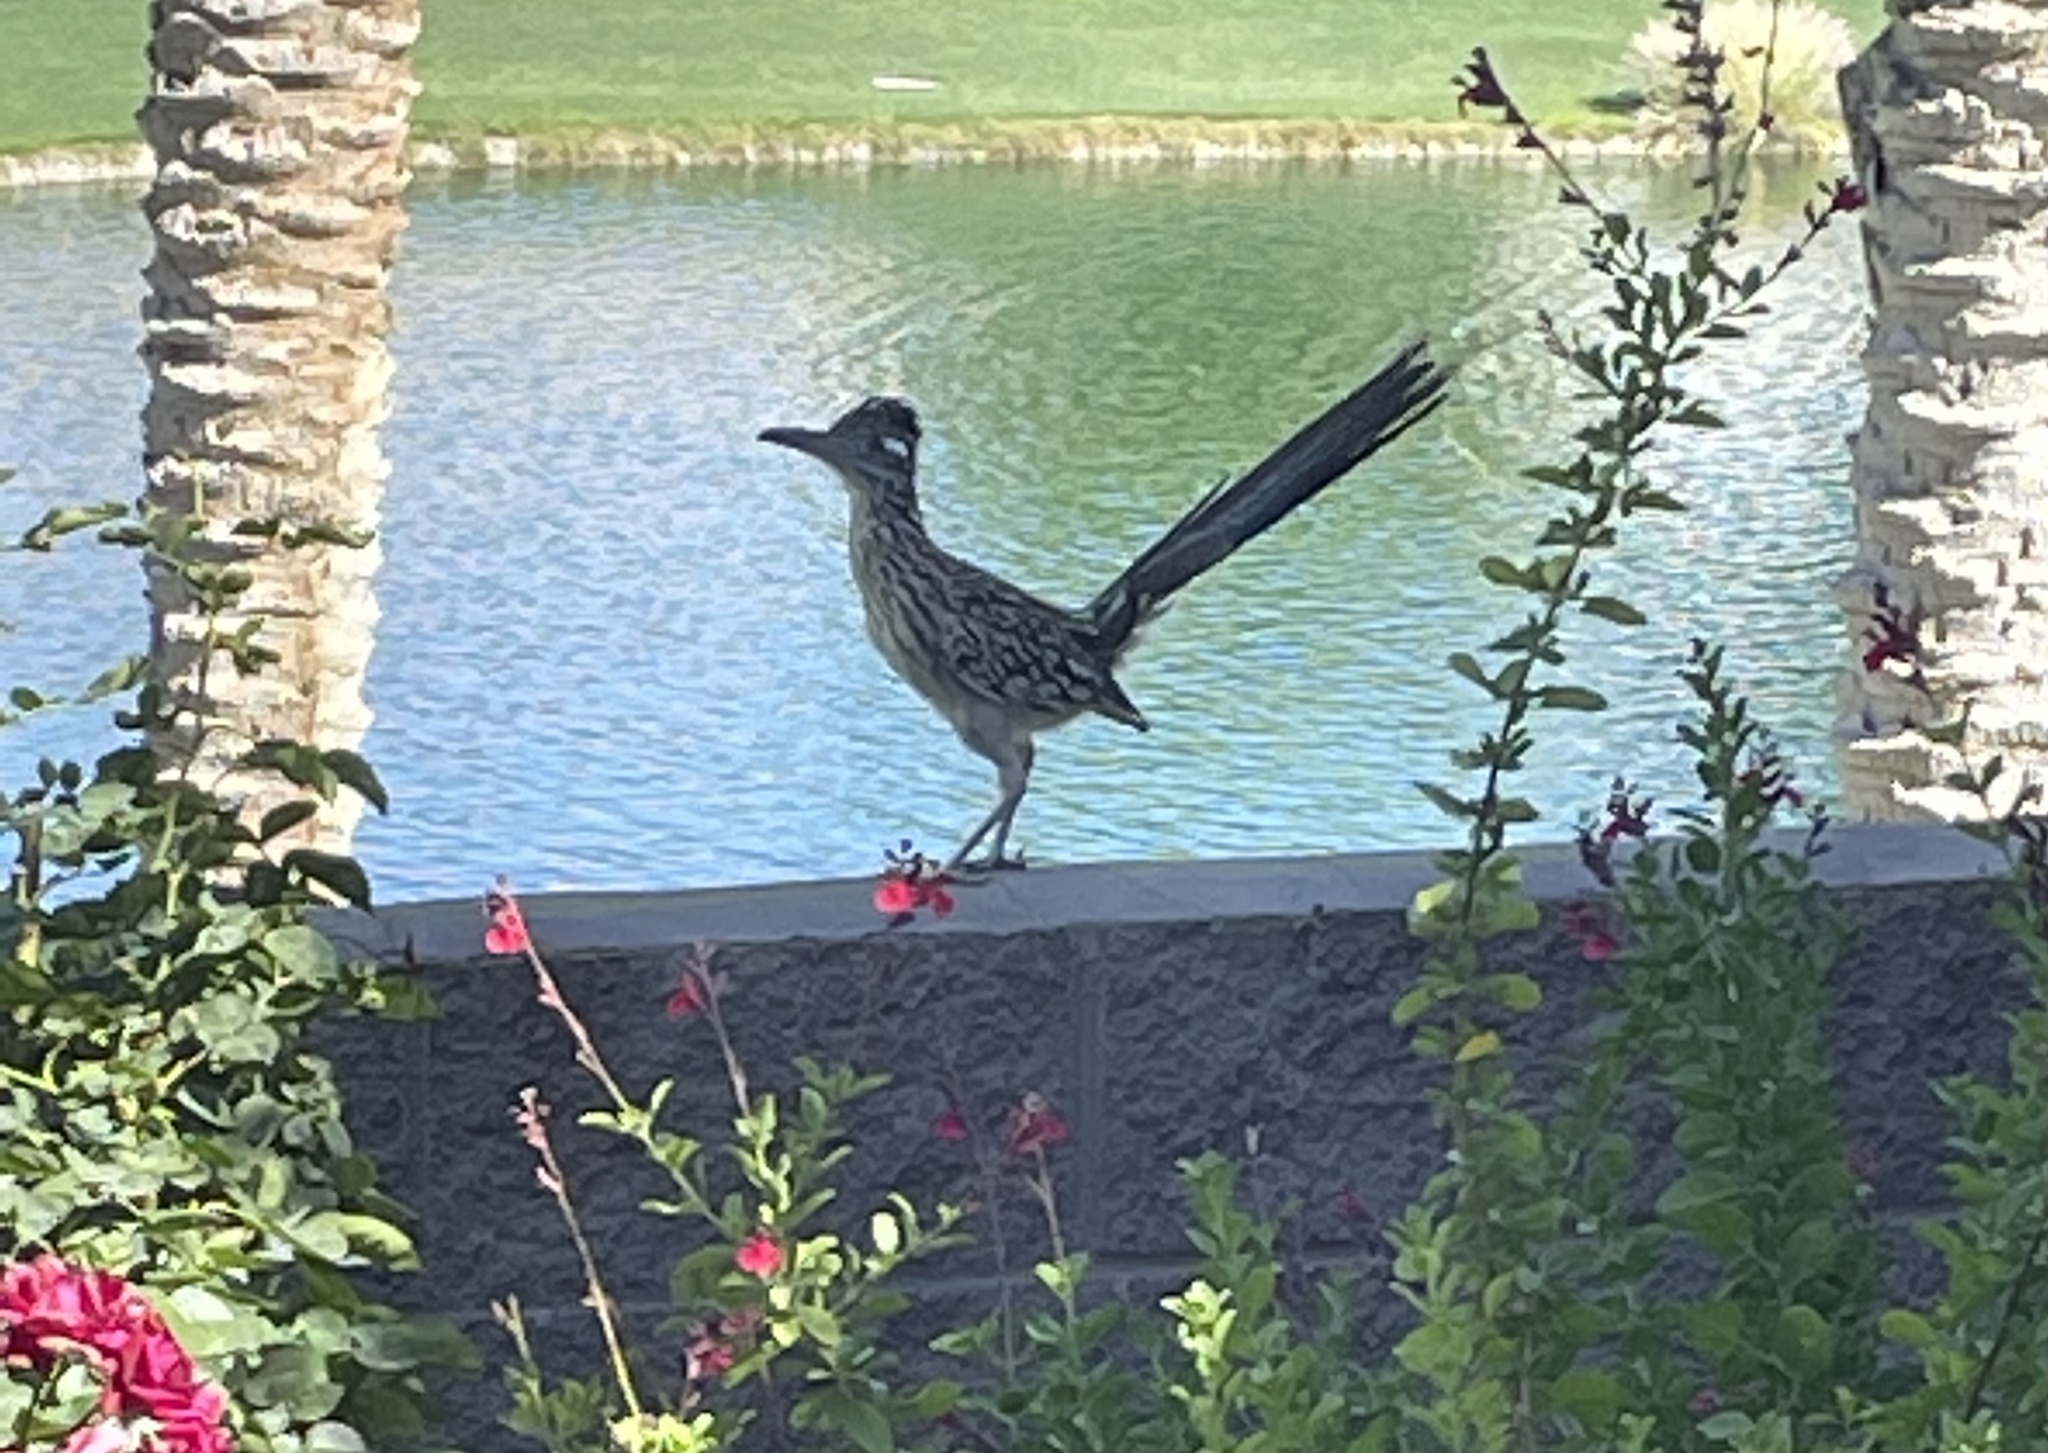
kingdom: Animalia
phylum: Chordata
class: Aves
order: Cuculiformes
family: Cuculidae
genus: Geococcyx
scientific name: Geococcyx californianus
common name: Greater roadrunner
